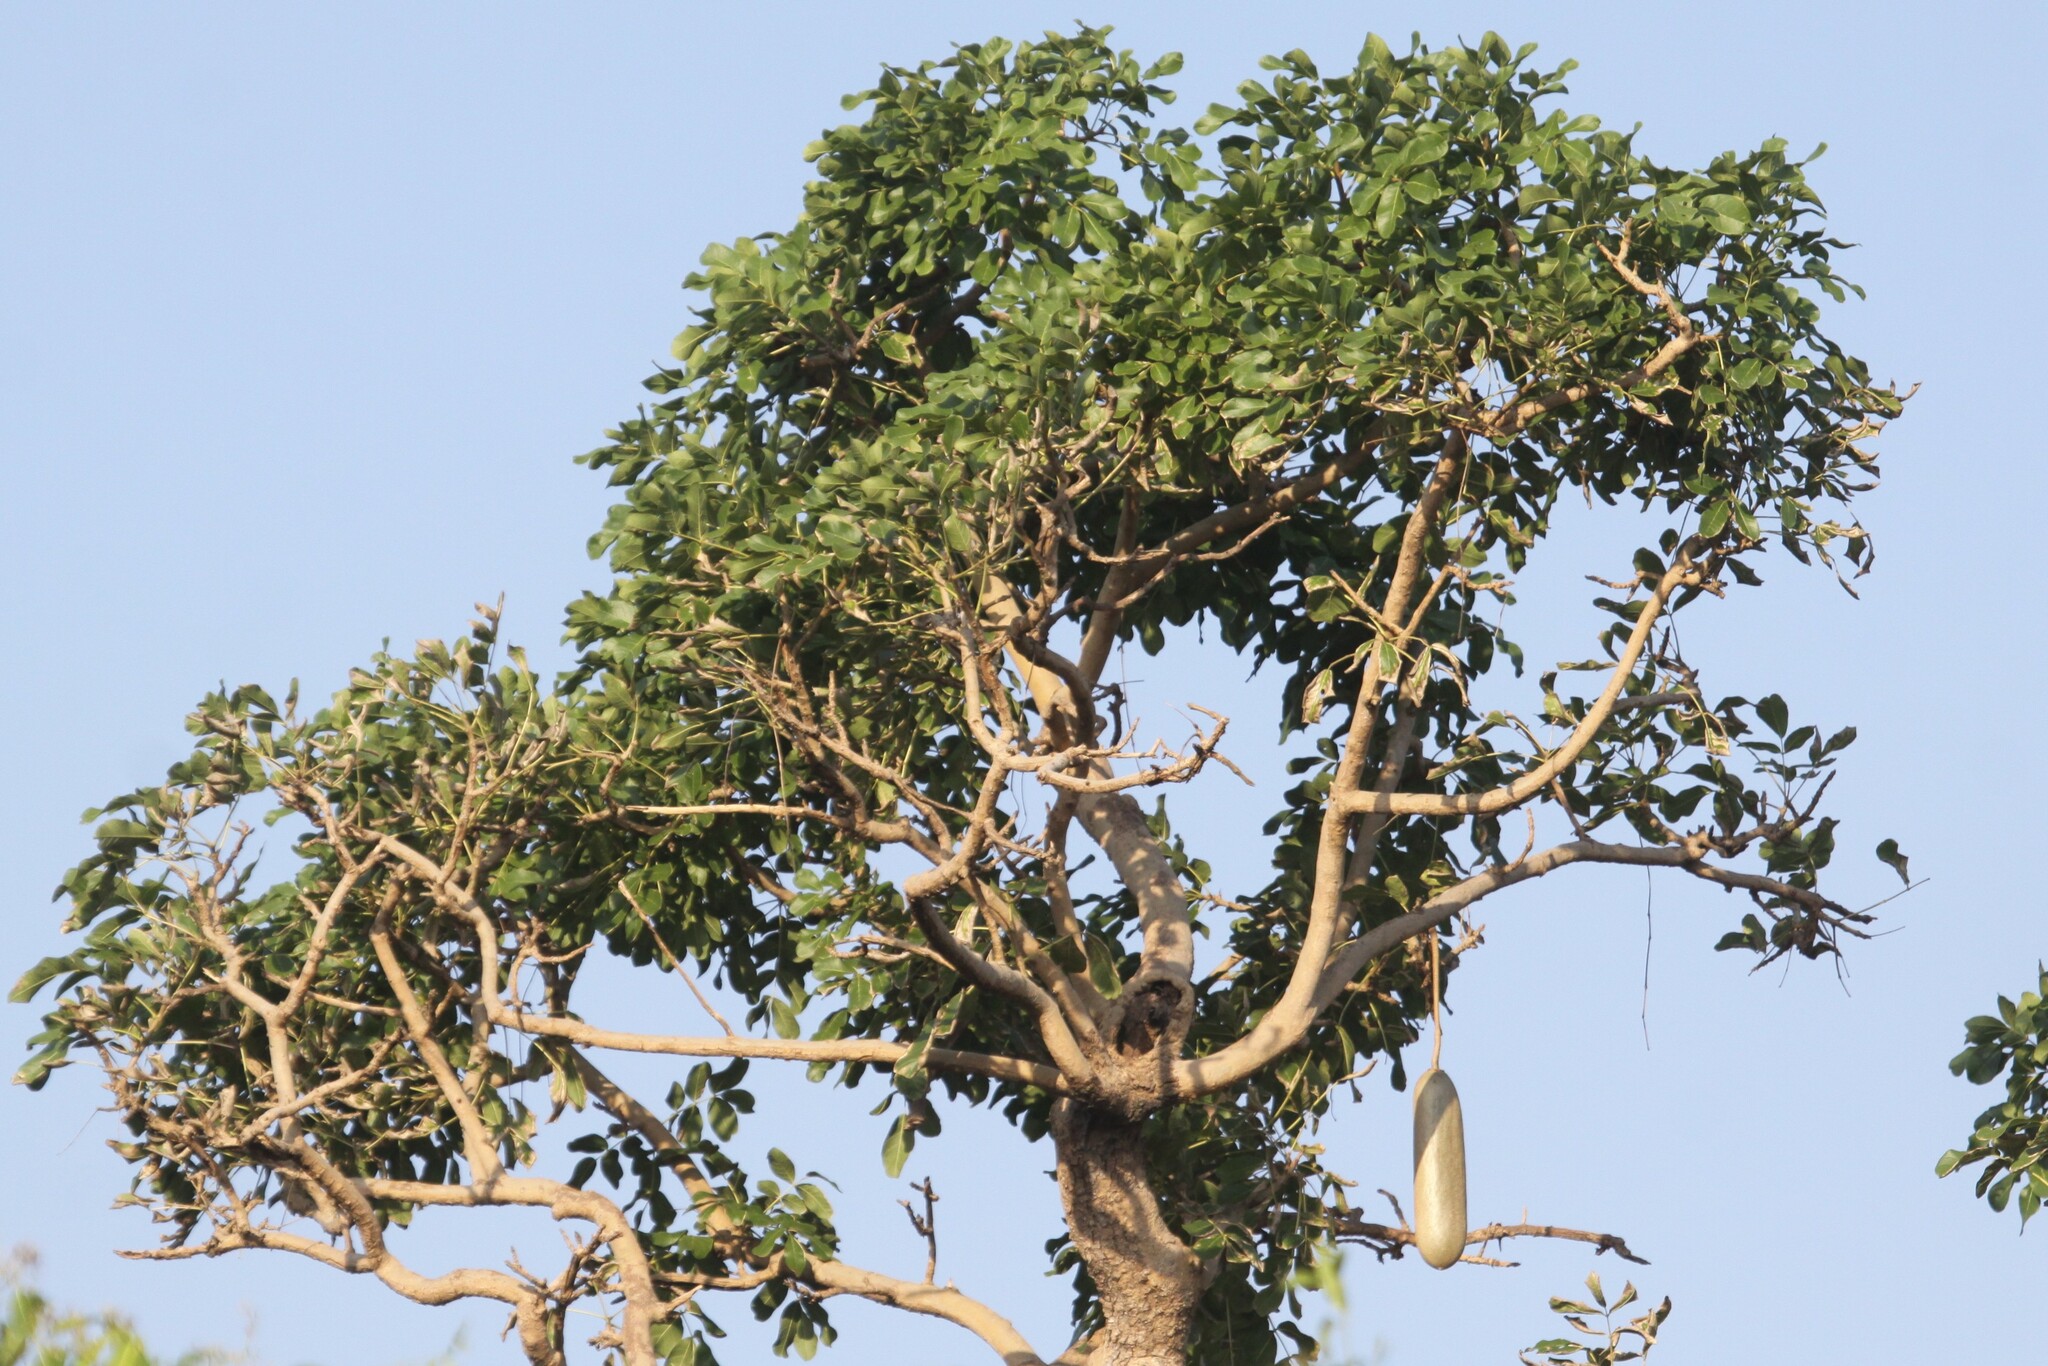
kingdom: Plantae
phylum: Tracheophyta
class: Magnoliopsida
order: Lamiales
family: Bignoniaceae
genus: Kigelia
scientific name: Kigelia africana
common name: Sausage tree
